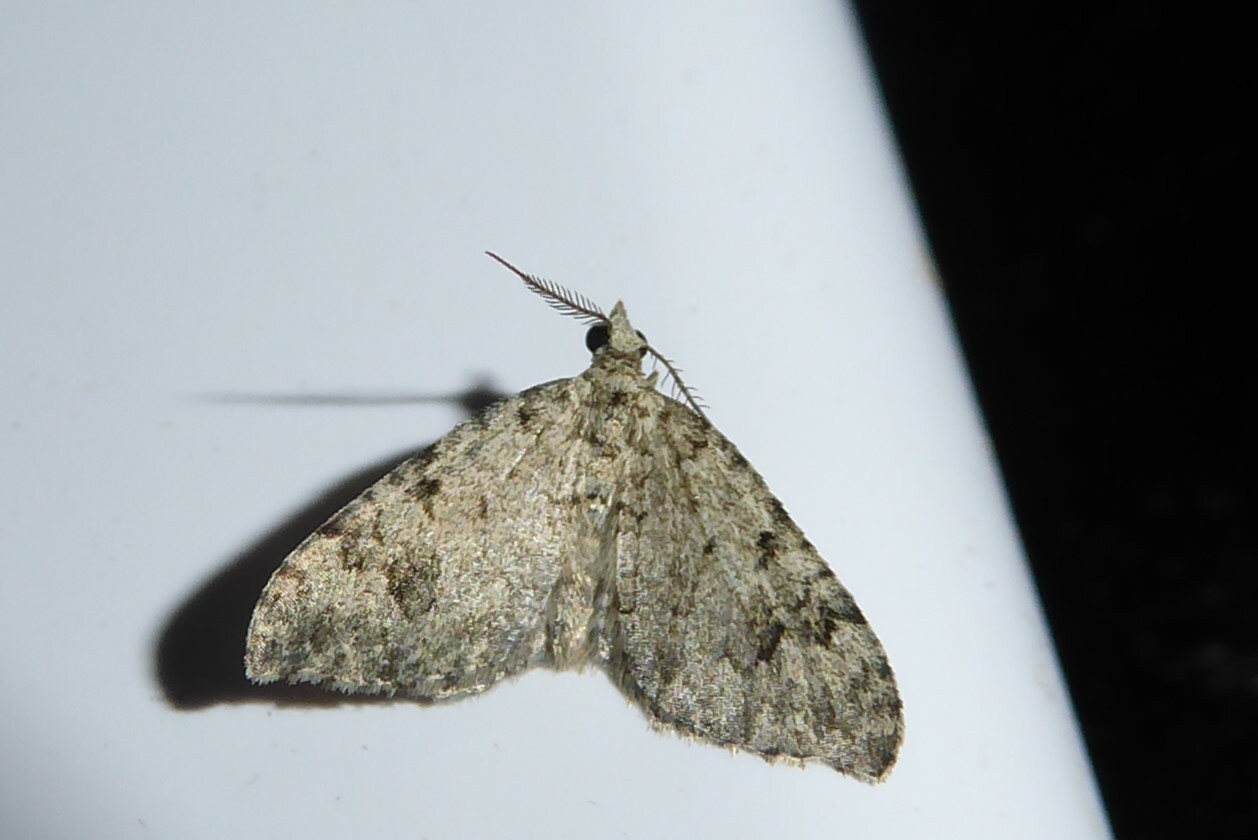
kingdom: Animalia
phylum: Arthropoda
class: Insecta
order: Lepidoptera
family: Geometridae
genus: Helastia
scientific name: Helastia cinerearia
